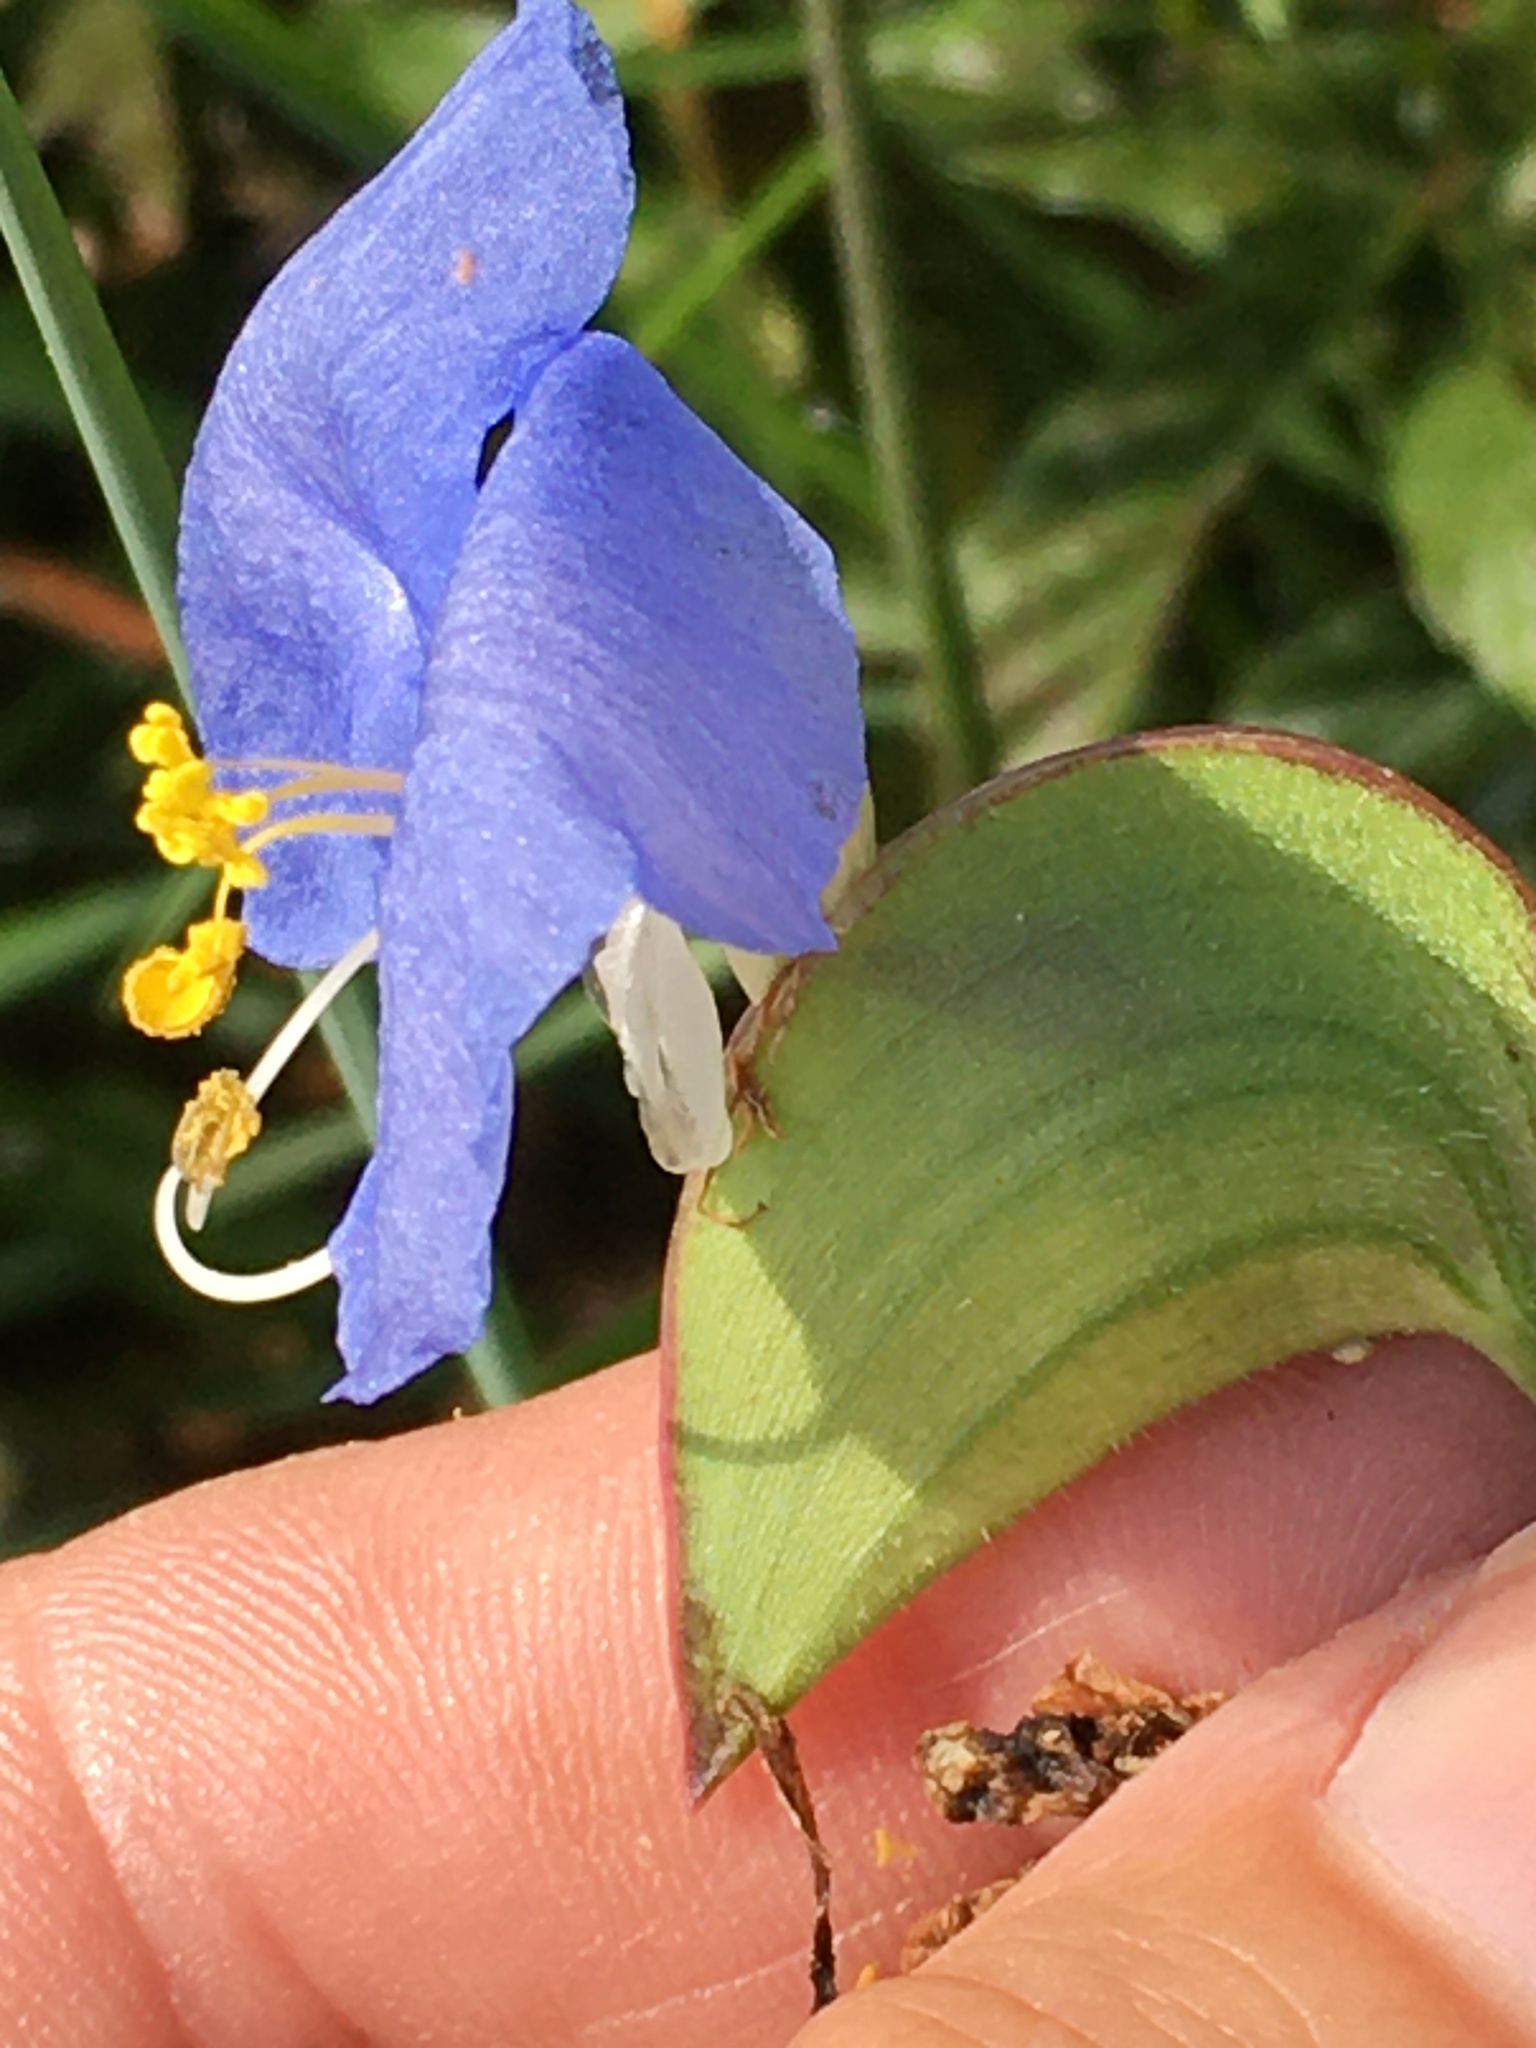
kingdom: Plantae
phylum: Tracheophyta
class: Liliopsida
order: Commelinales
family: Commelinaceae
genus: Commelina
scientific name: Commelina erecta
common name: Blousel blommetjie
